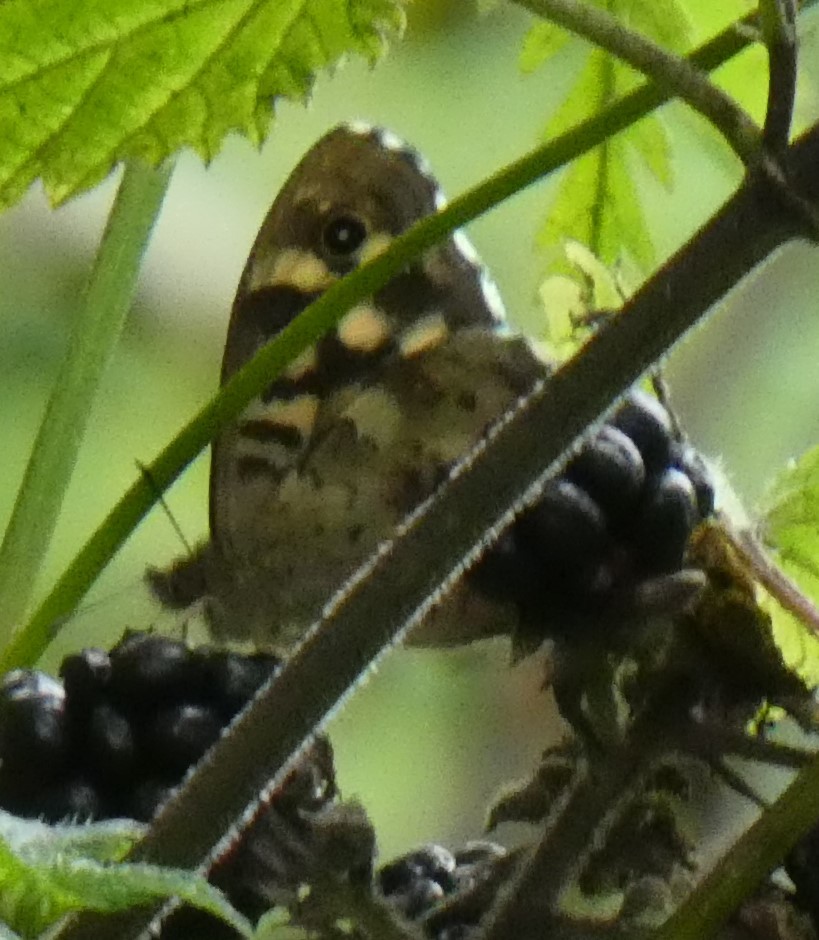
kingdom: Animalia
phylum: Arthropoda
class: Insecta
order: Lepidoptera
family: Nymphalidae
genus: Pararge
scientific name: Pararge aegeria
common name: Speckled wood
